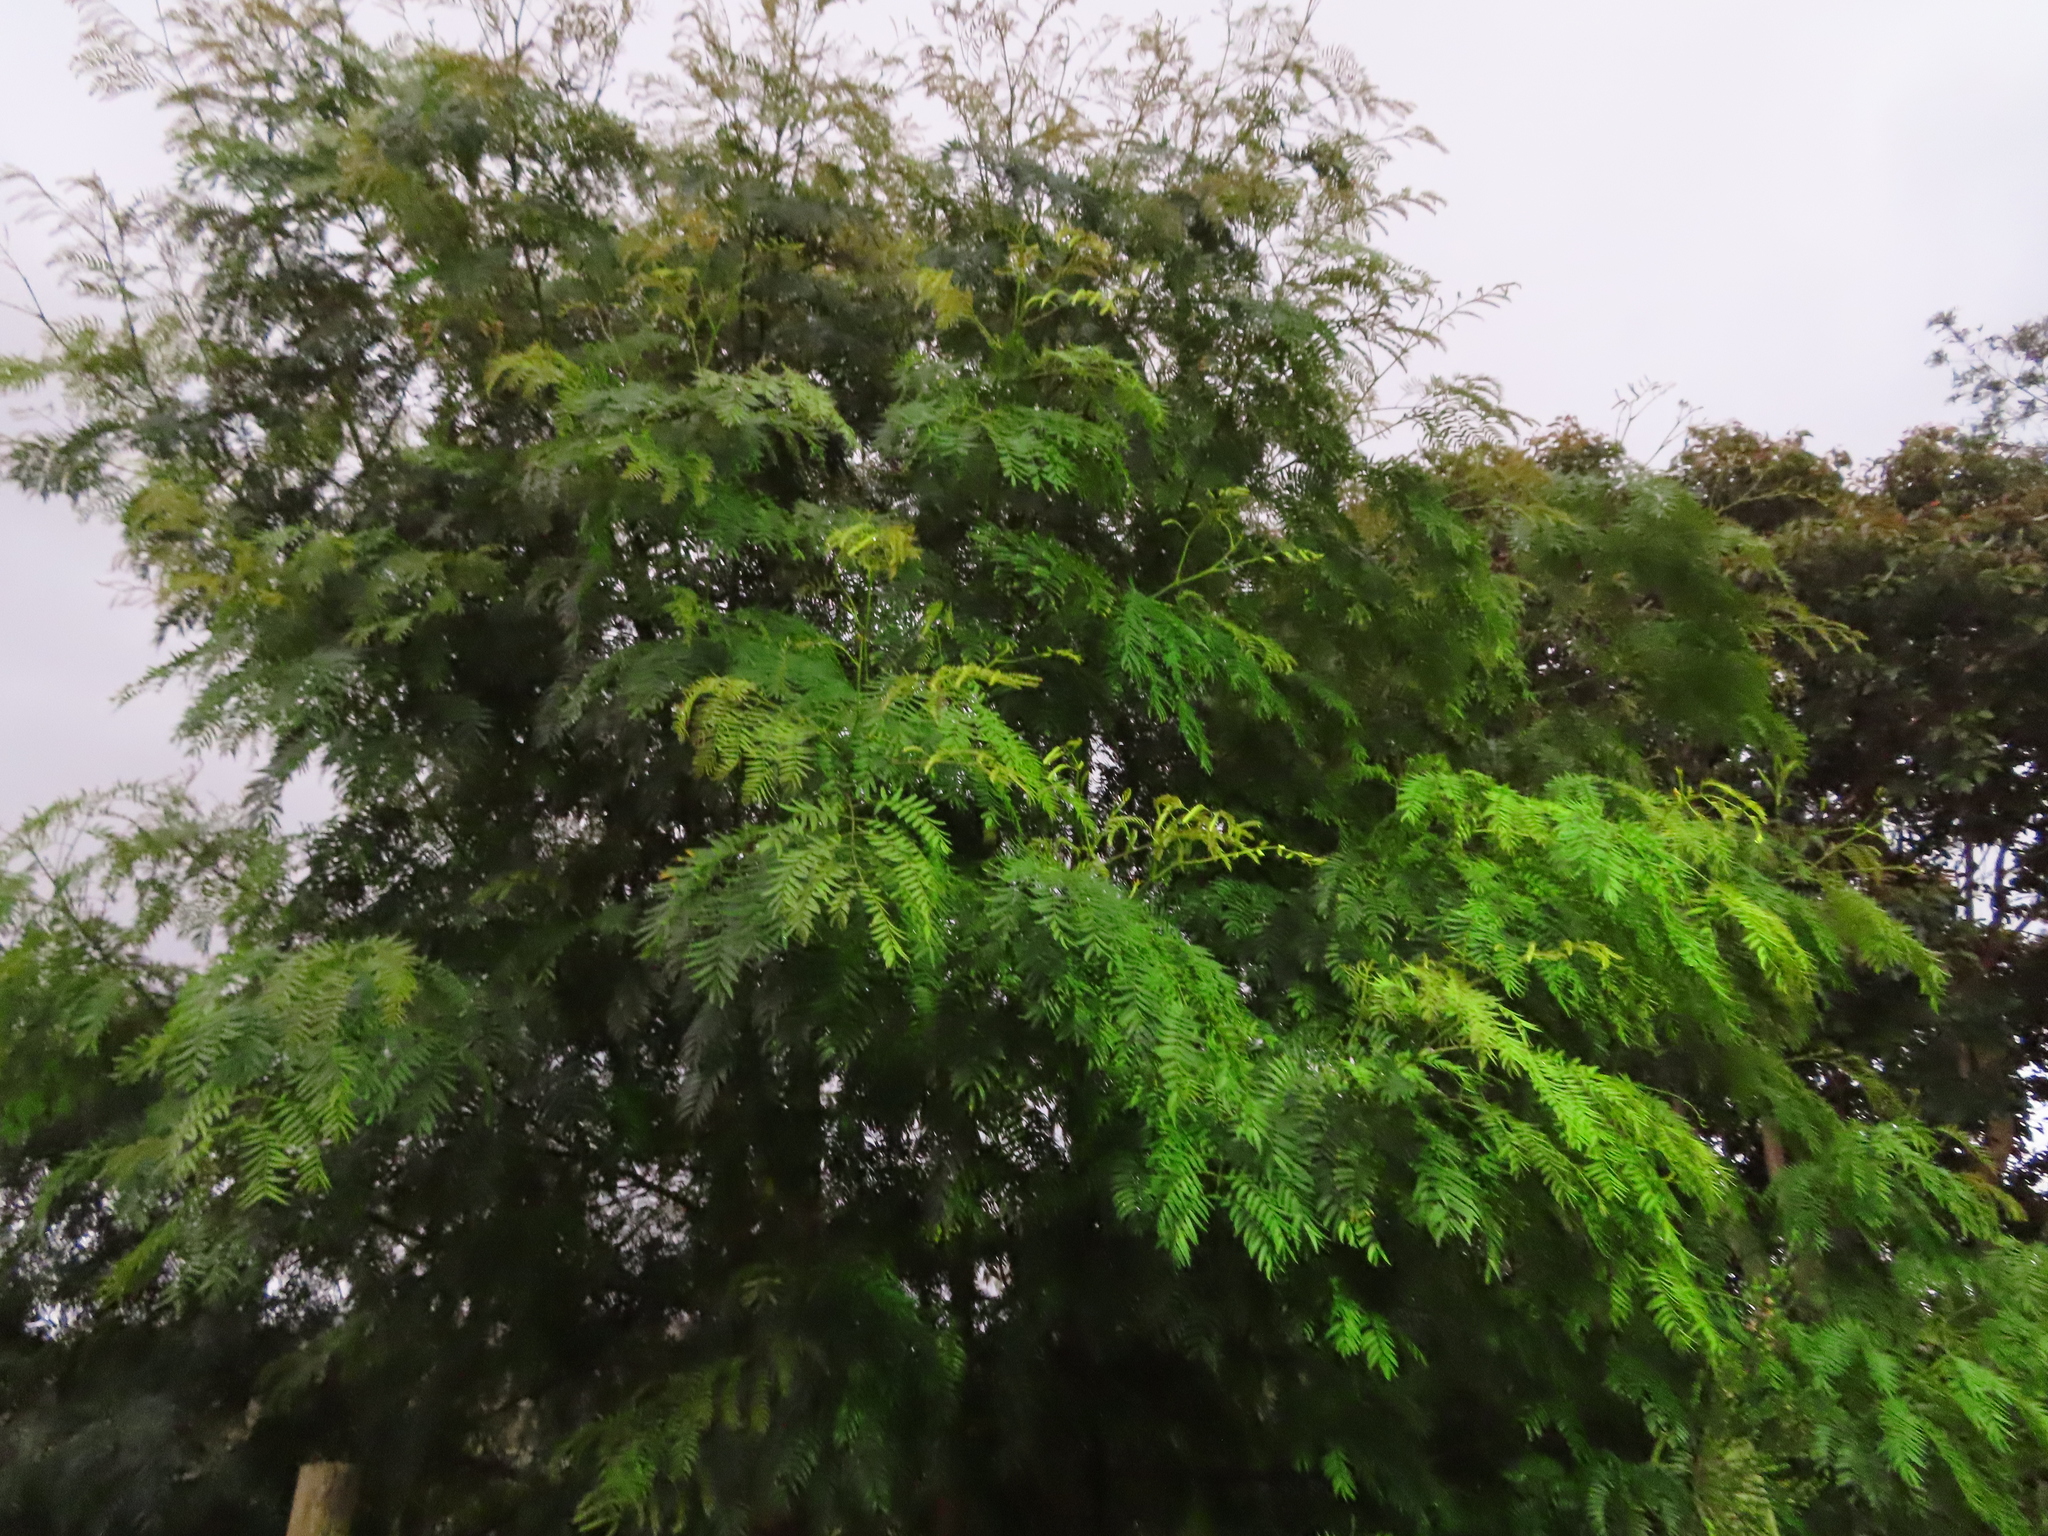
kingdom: Plantae
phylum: Tracheophyta
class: Magnoliopsida
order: Fabales
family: Fabaceae
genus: Acacia
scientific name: Acacia elata
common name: Cedar wattle
